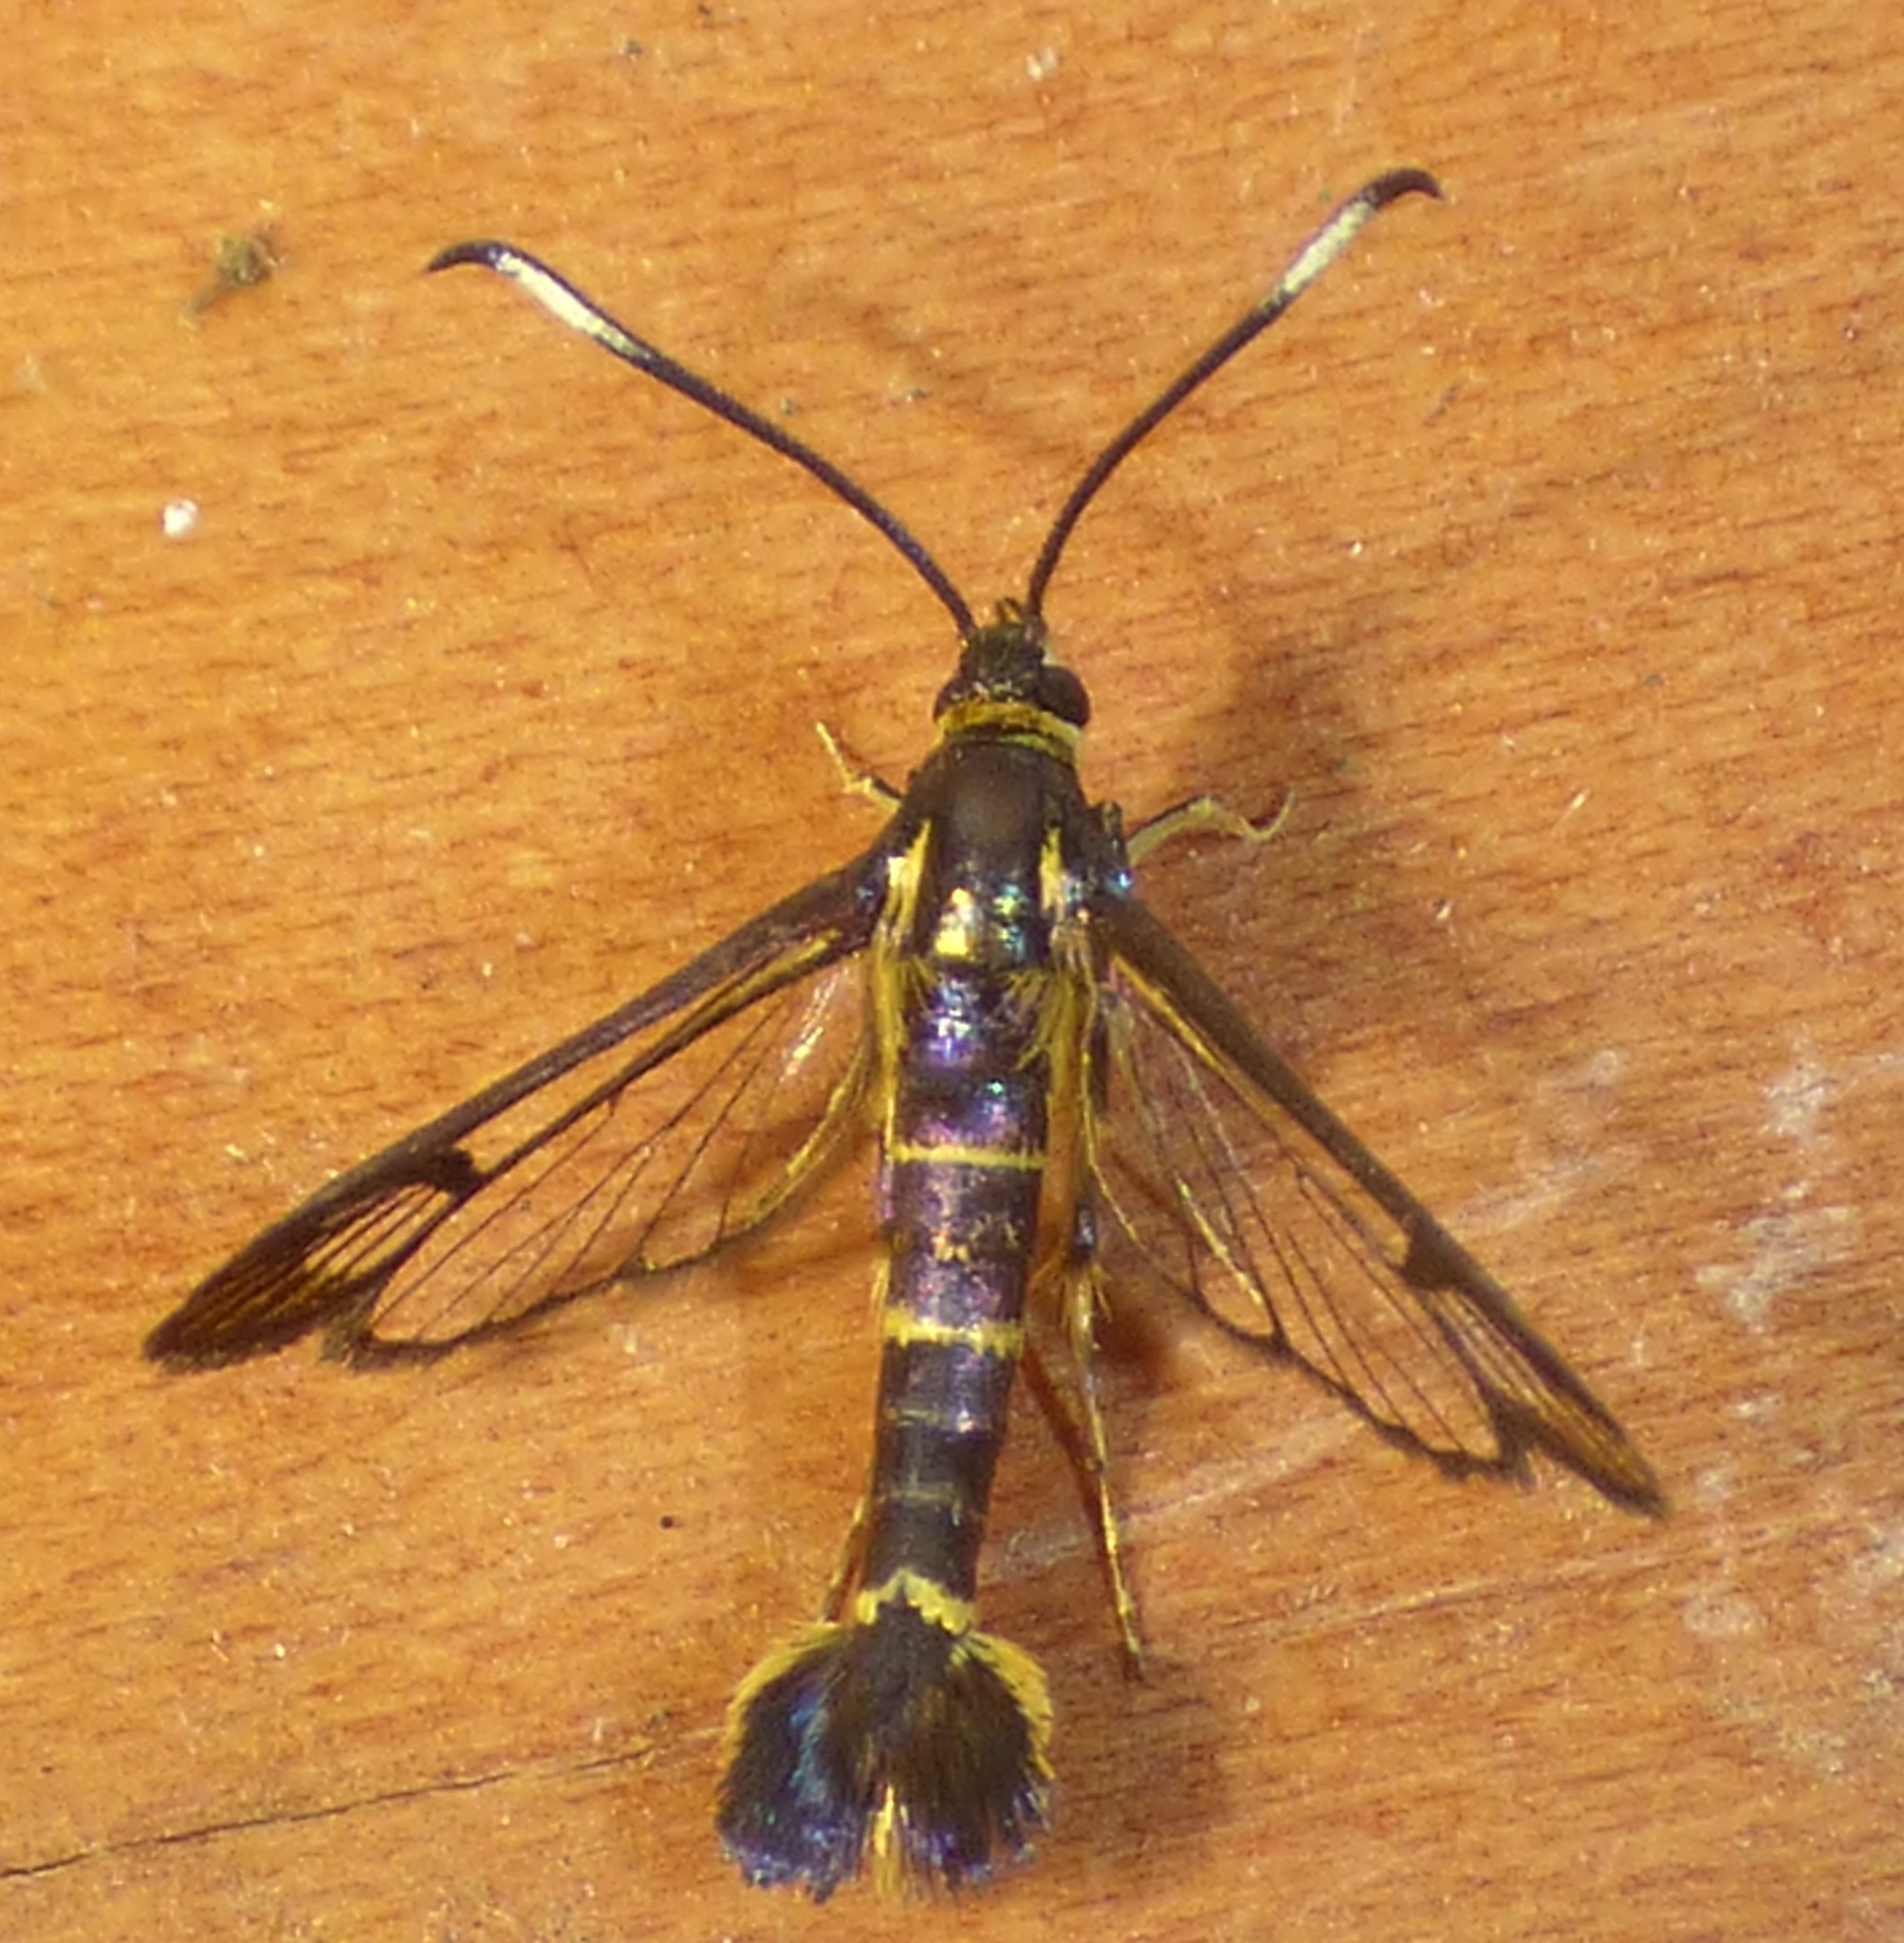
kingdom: Animalia
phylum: Arthropoda
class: Insecta
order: Lepidoptera
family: Sesiidae
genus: Carmenta
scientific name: Carmenta bassiformis
